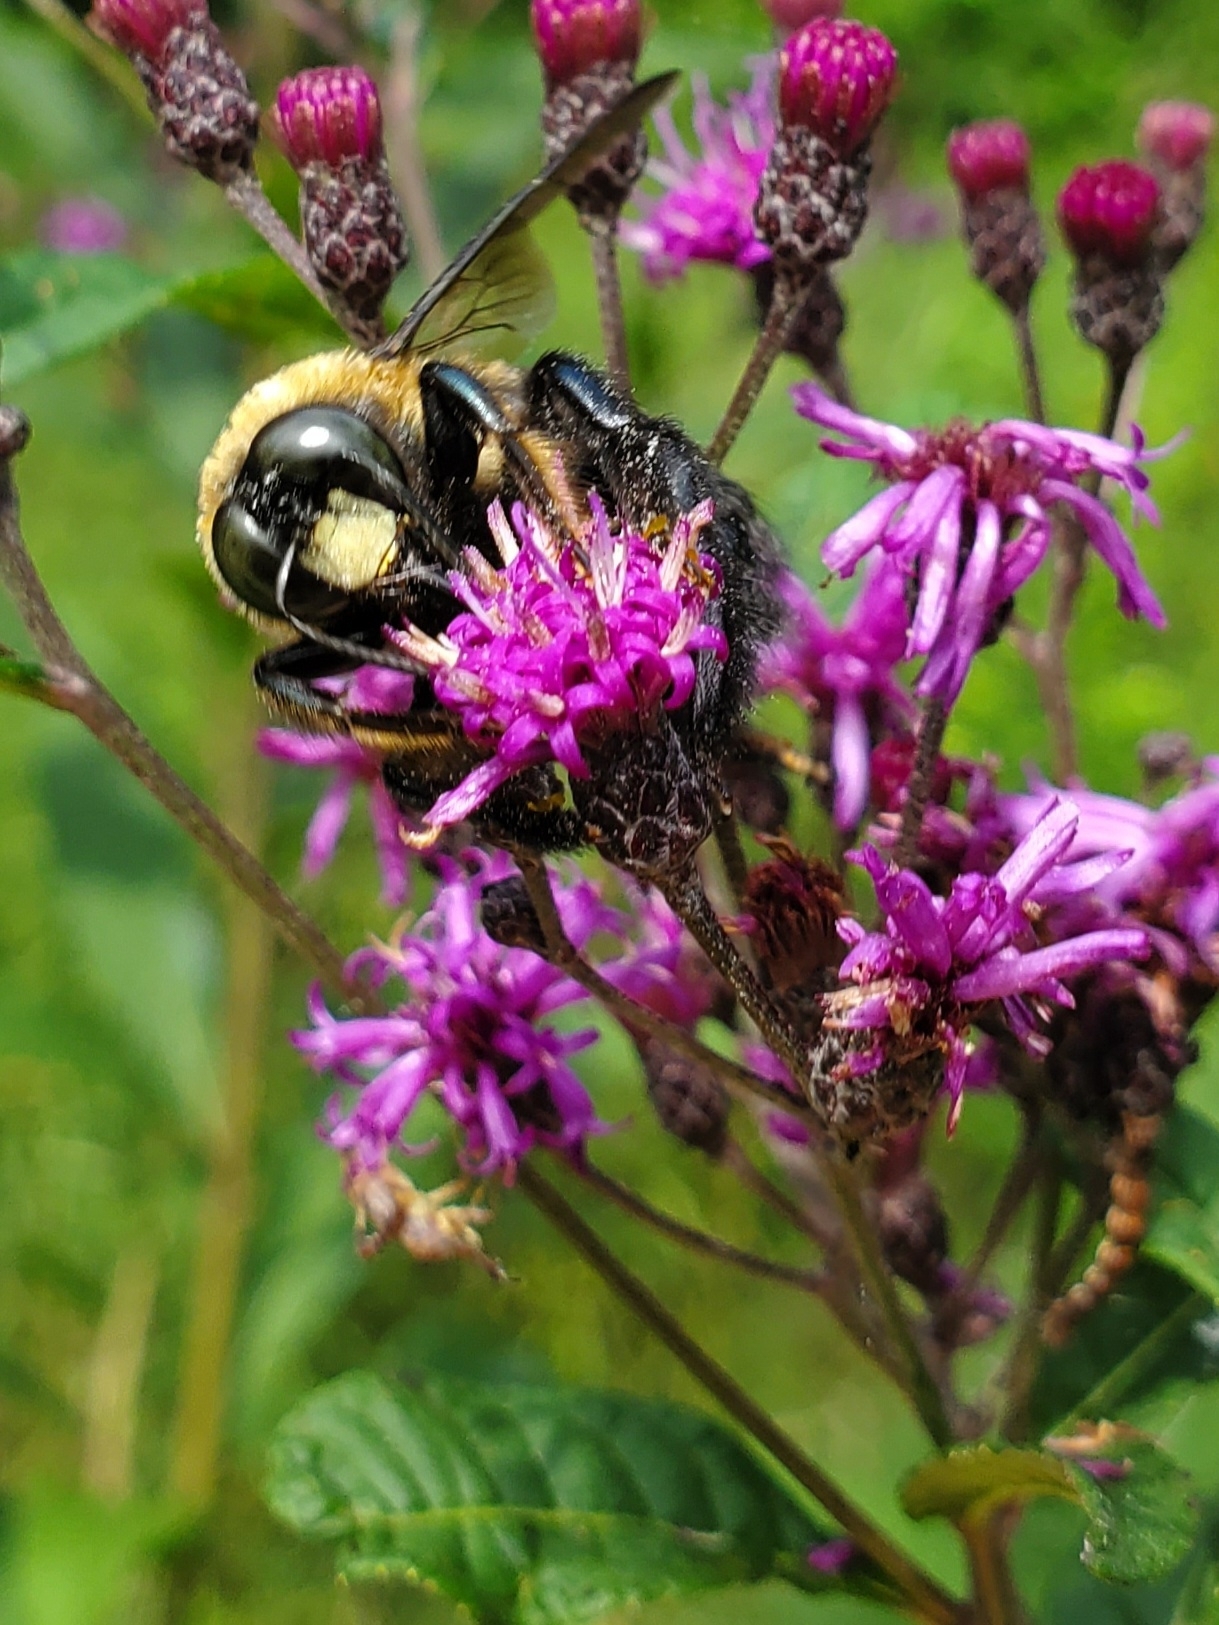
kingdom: Animalia
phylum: Arthropoda
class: Insecta
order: Hymenoptera
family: Apidae
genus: Xylocopa
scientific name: Xylocopa virginica
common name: Carpenter bee
